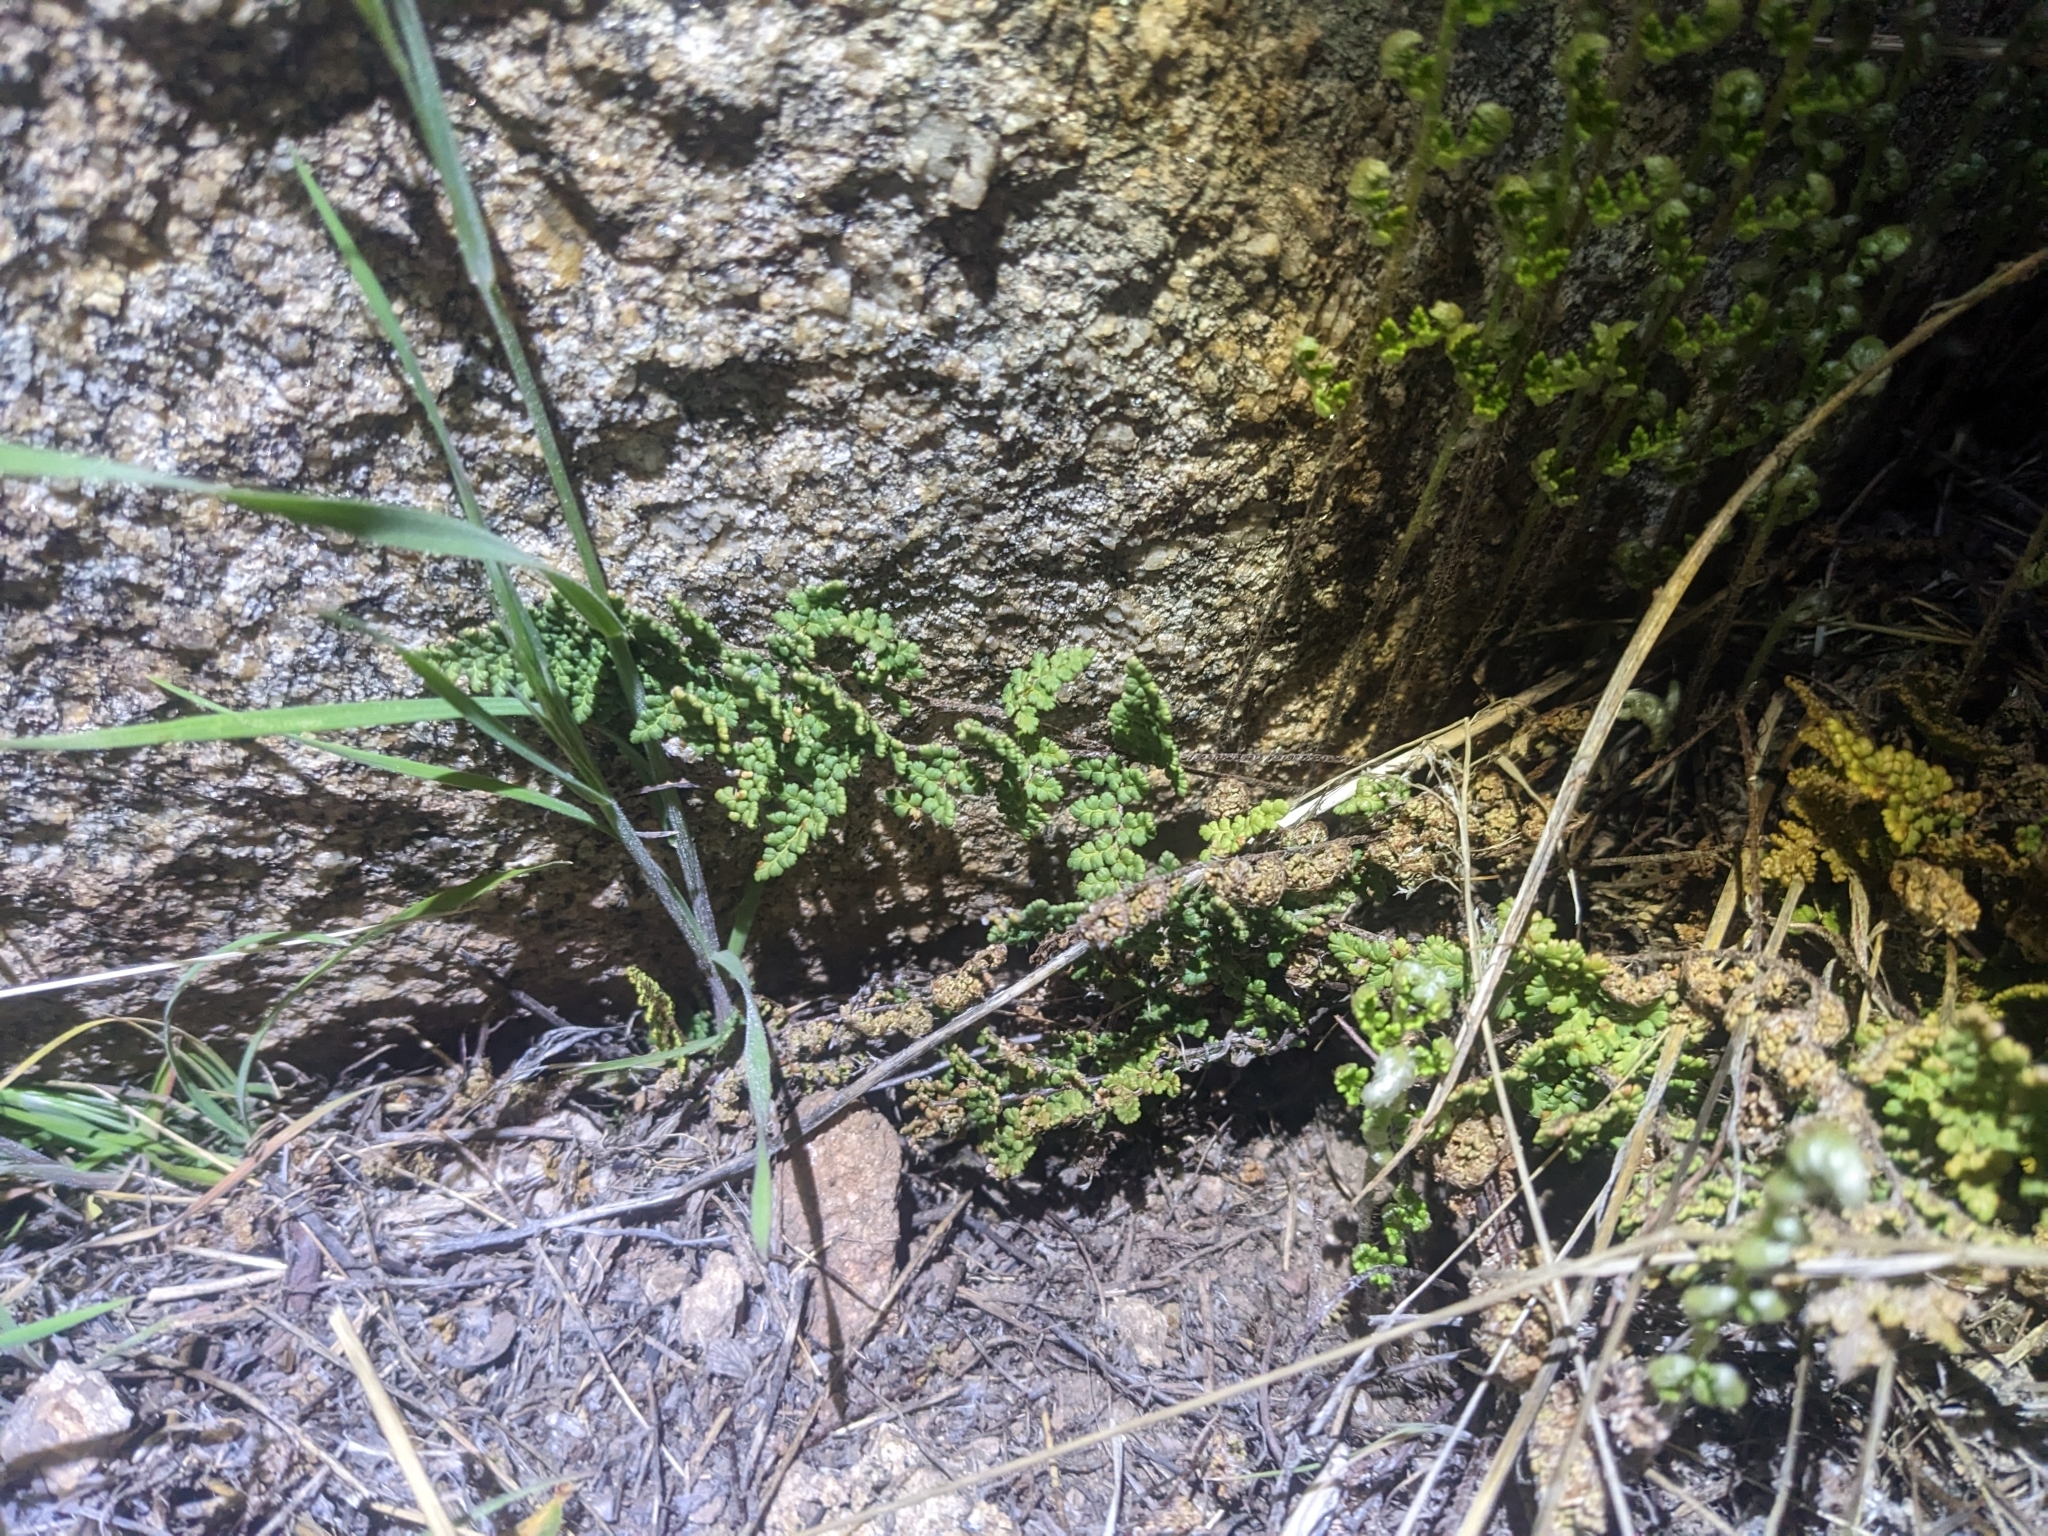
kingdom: Plantae
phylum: Tracheophyta
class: Polypodiopsida
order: Polypodiales
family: Pteridaceae
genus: Myriopteris
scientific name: Myriopteris fendleri
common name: Fendler's lip fern
